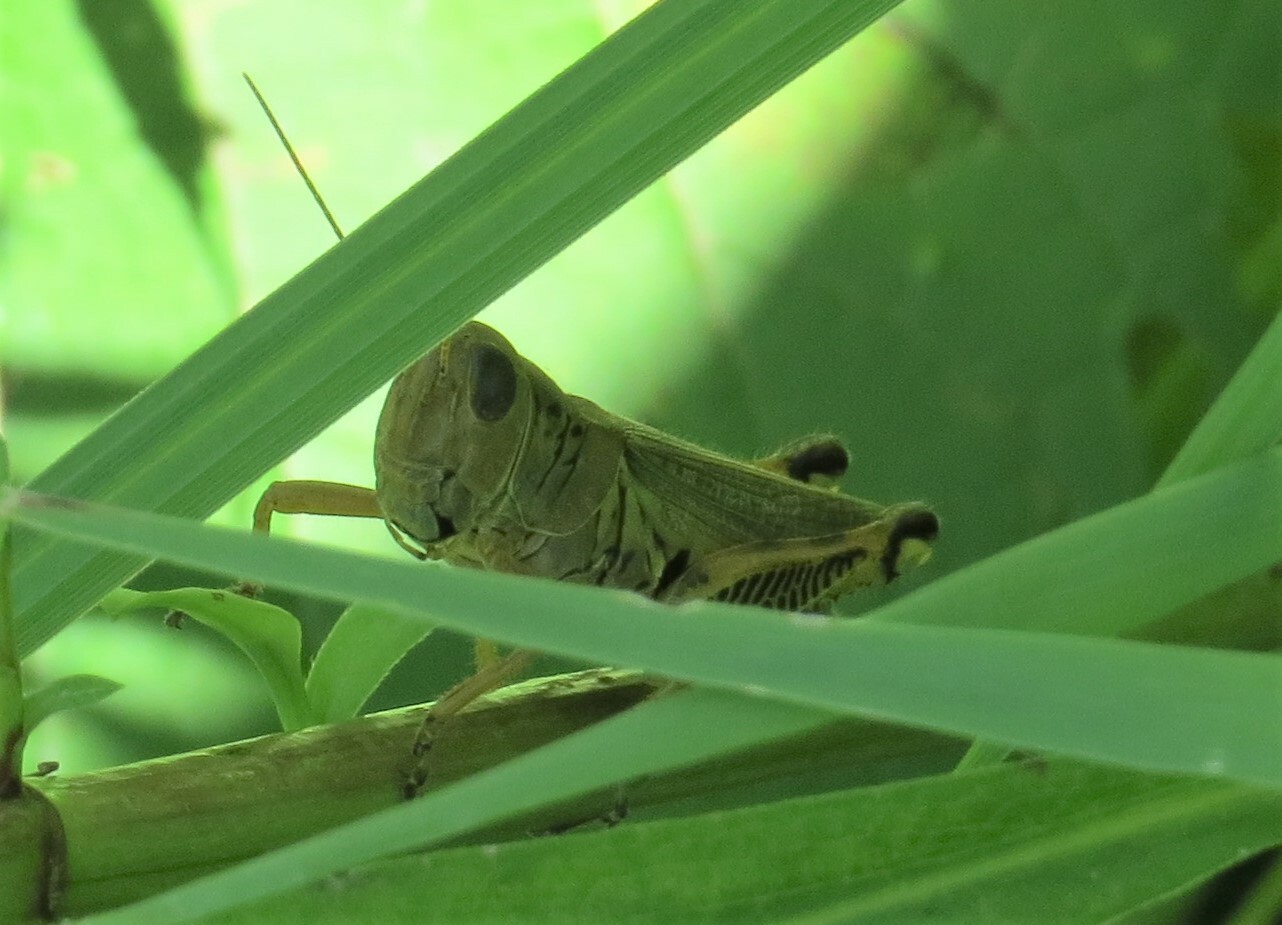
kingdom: Animalia
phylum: Arthropoda
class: Insecta
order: Orthoptera
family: Acrididae
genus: Melanoplus
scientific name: Melanoplus differentialis
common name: Differential grasshopper
